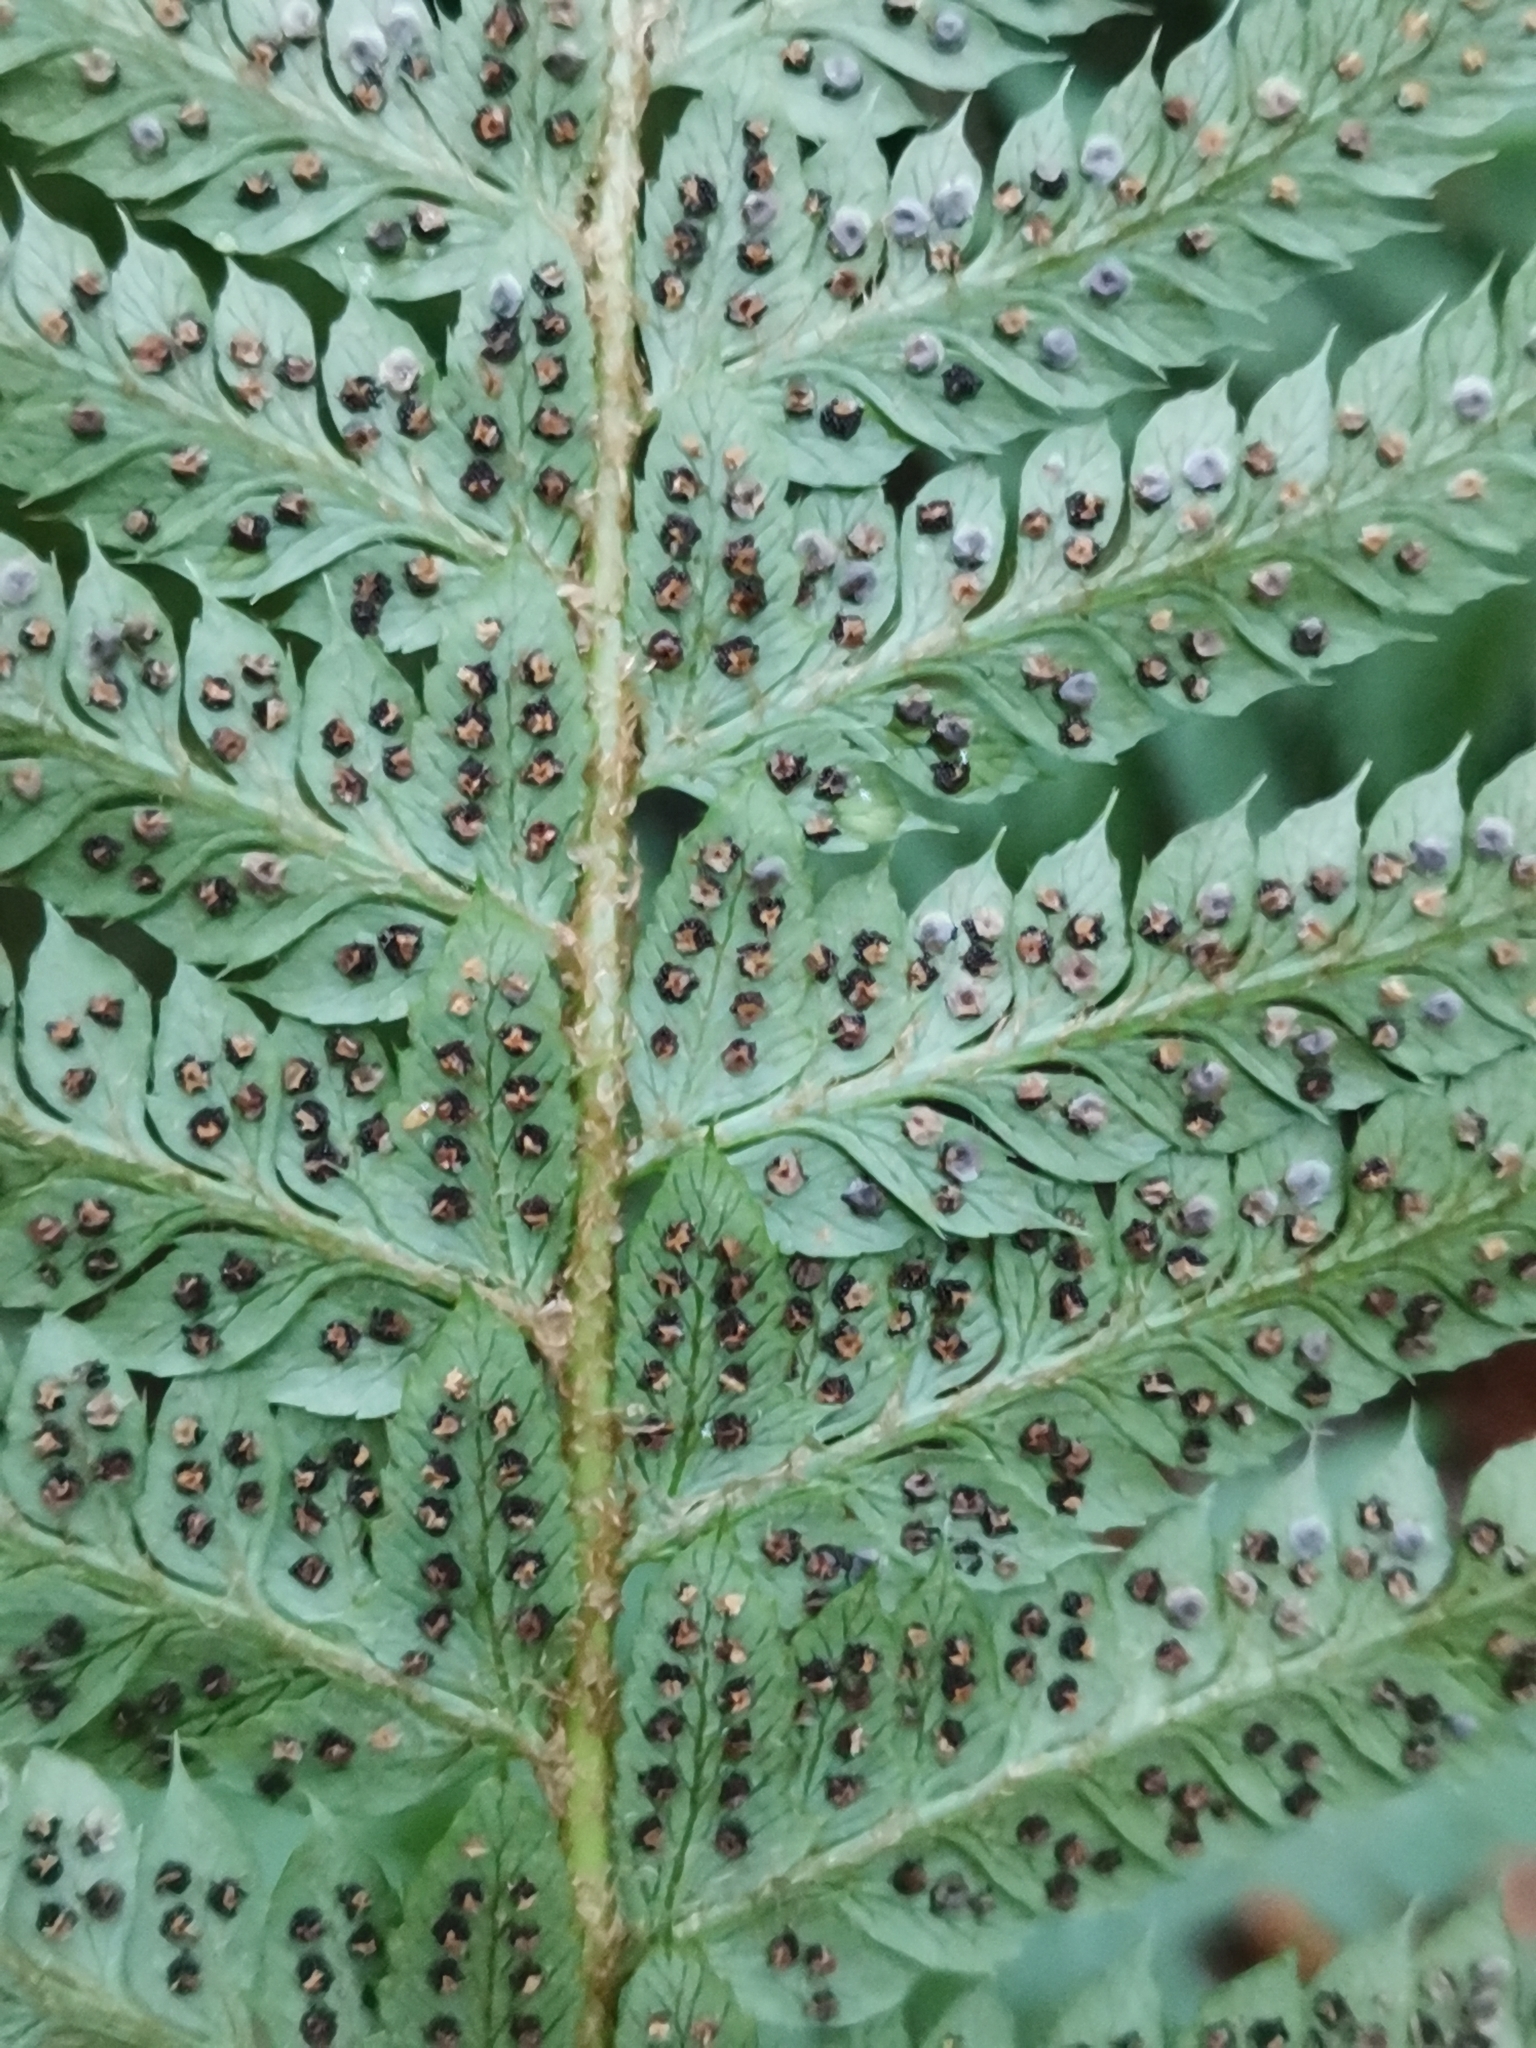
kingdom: Plantae
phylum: Tracheophyta
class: Polypodiopsida
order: Polypodiales
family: Dryopteridaceae
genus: Polystichum
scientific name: Polystichum aculeatum
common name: Hard shield-fern
